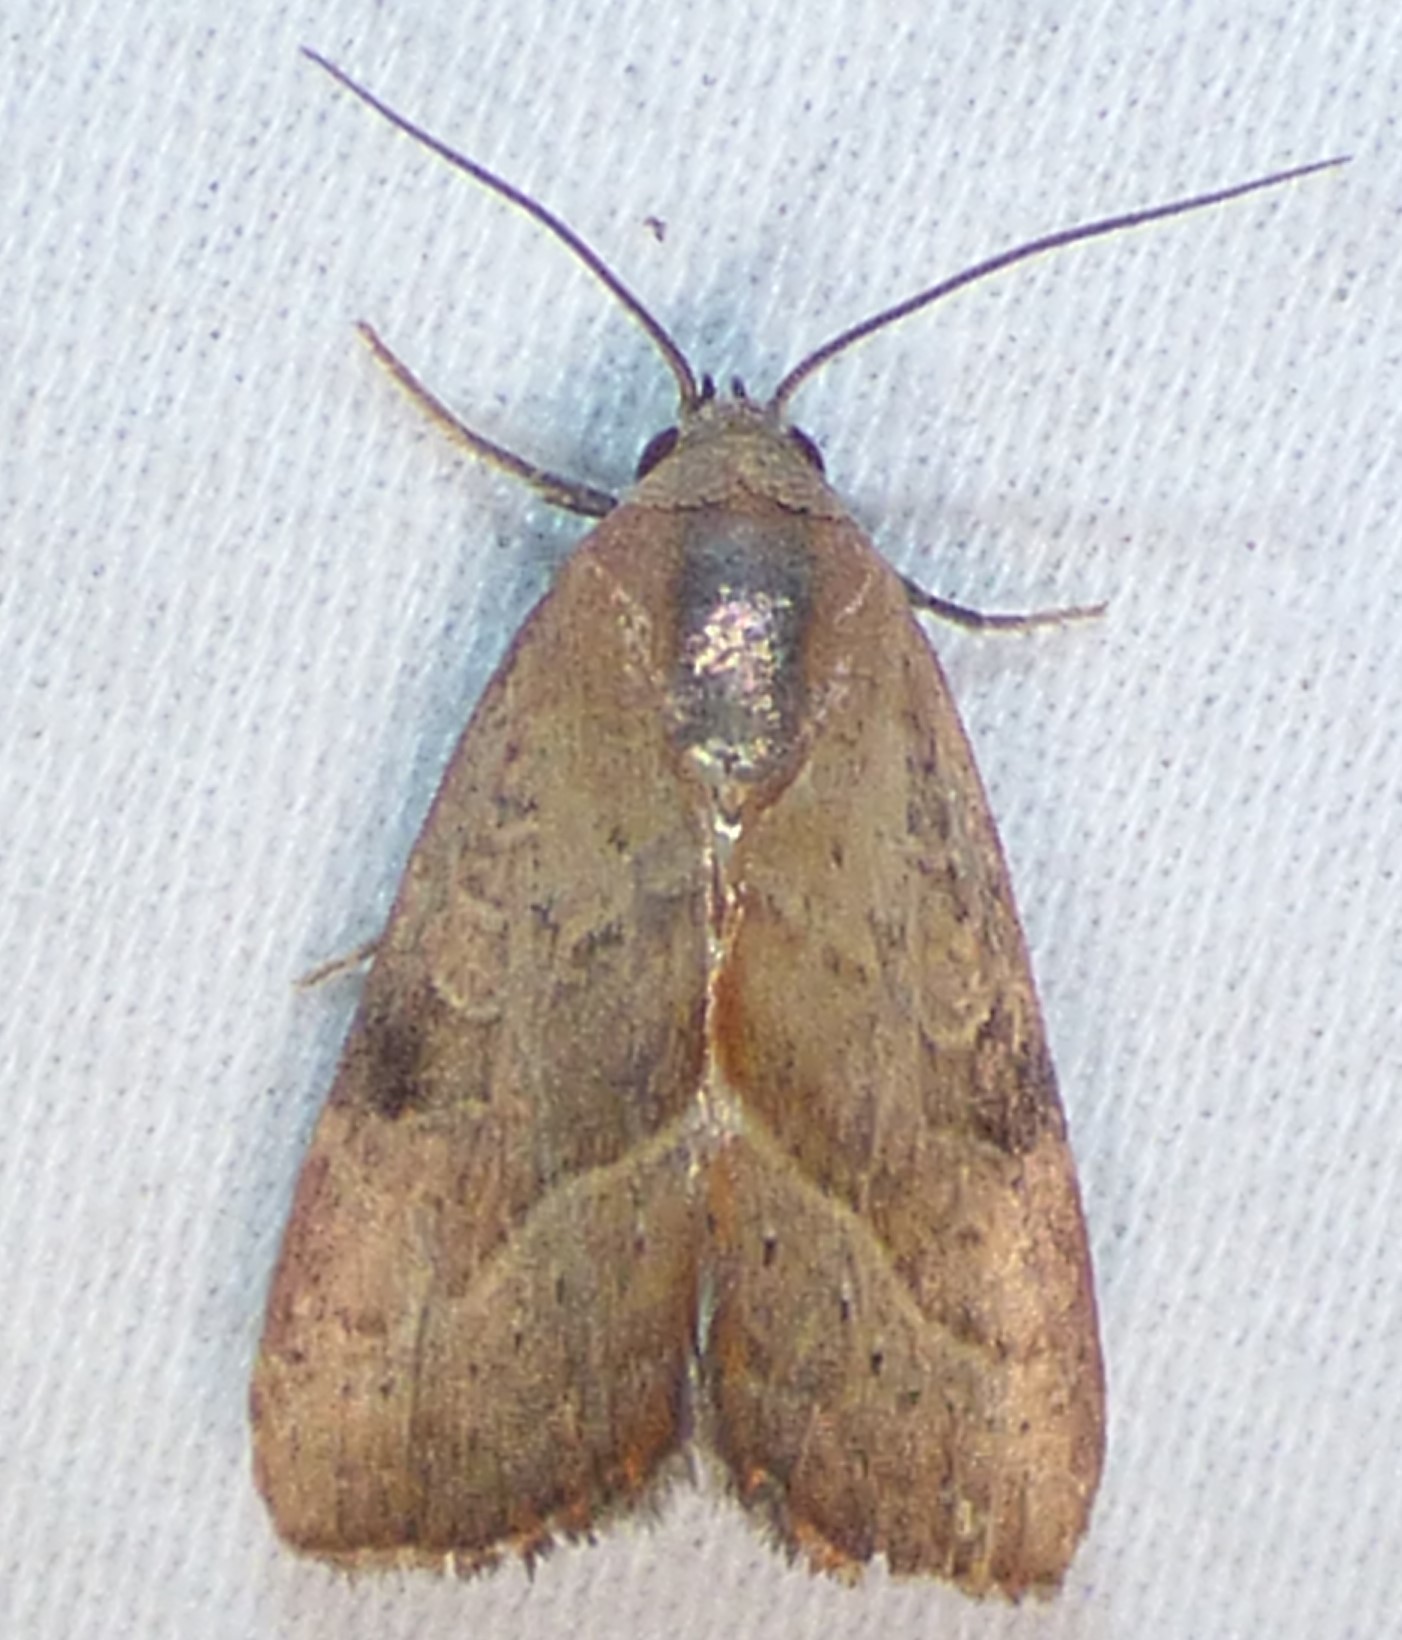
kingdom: Animalia
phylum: Arthropoda
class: Insecta
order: Lepidoptera
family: Noctuidae
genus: Galgula
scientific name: Galgula partita
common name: Wedgeling
